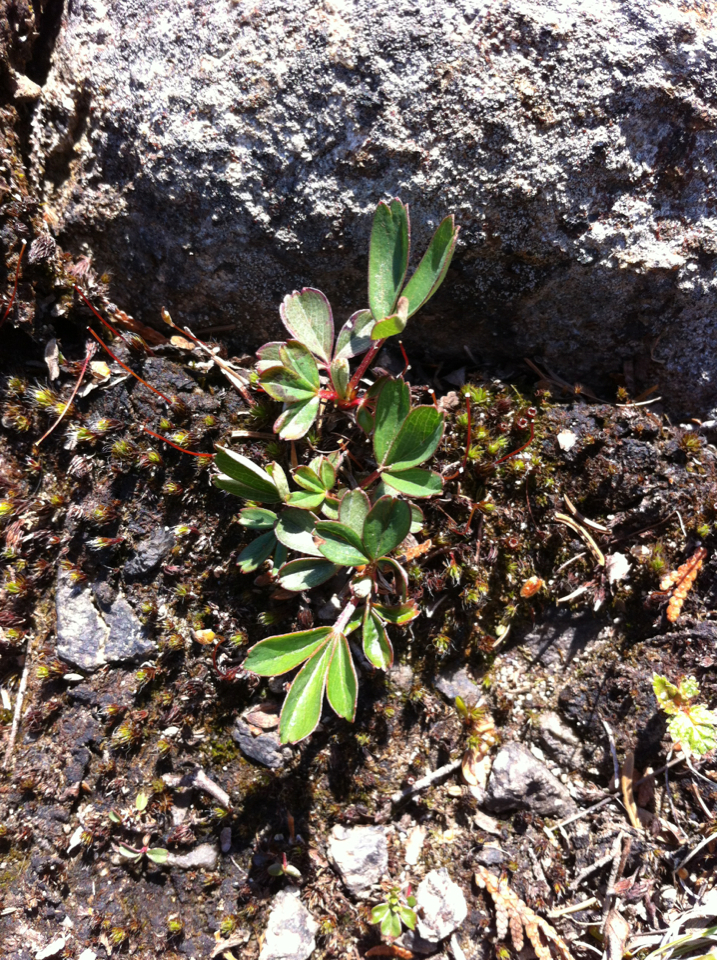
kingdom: Plantae
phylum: Tracheophyta
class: Magnoliopsida
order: Rosales
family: Rosaceae
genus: Sibbaldia
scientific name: Sibbaldia tridentata
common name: Three-toothed cinquefoil
